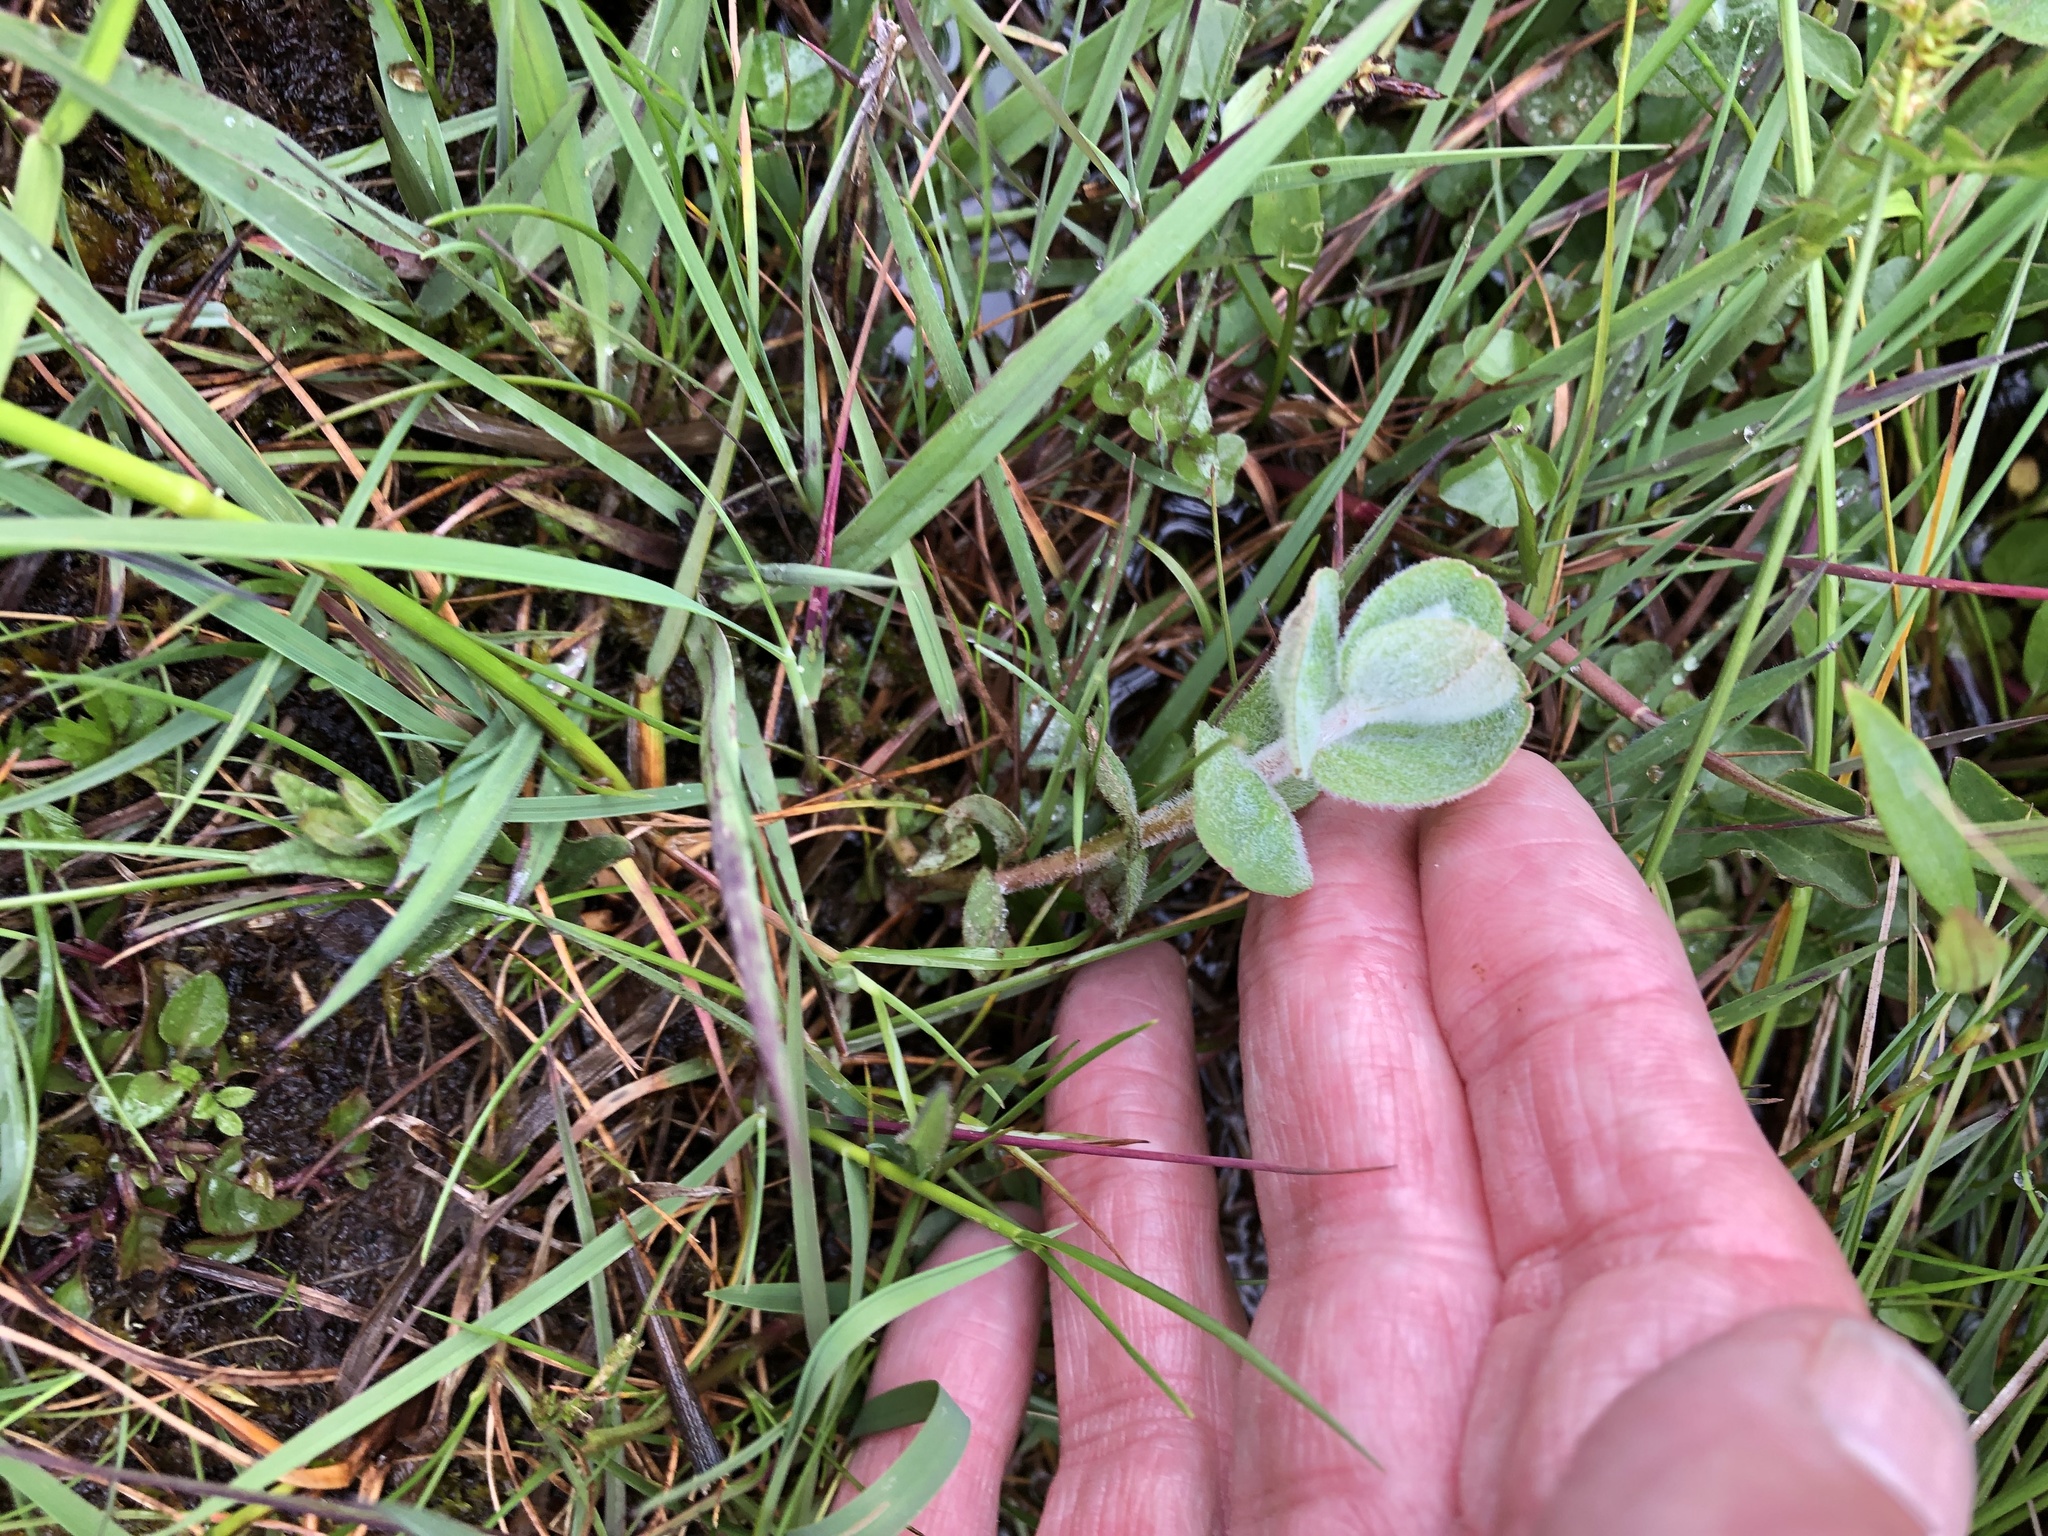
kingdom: Plantae
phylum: Tracheophyta
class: Magnoliopsida
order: Malpighiales
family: Hypericaceae
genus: Hypericum
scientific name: Hypericum elodes
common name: Marsh st. john's-wort
